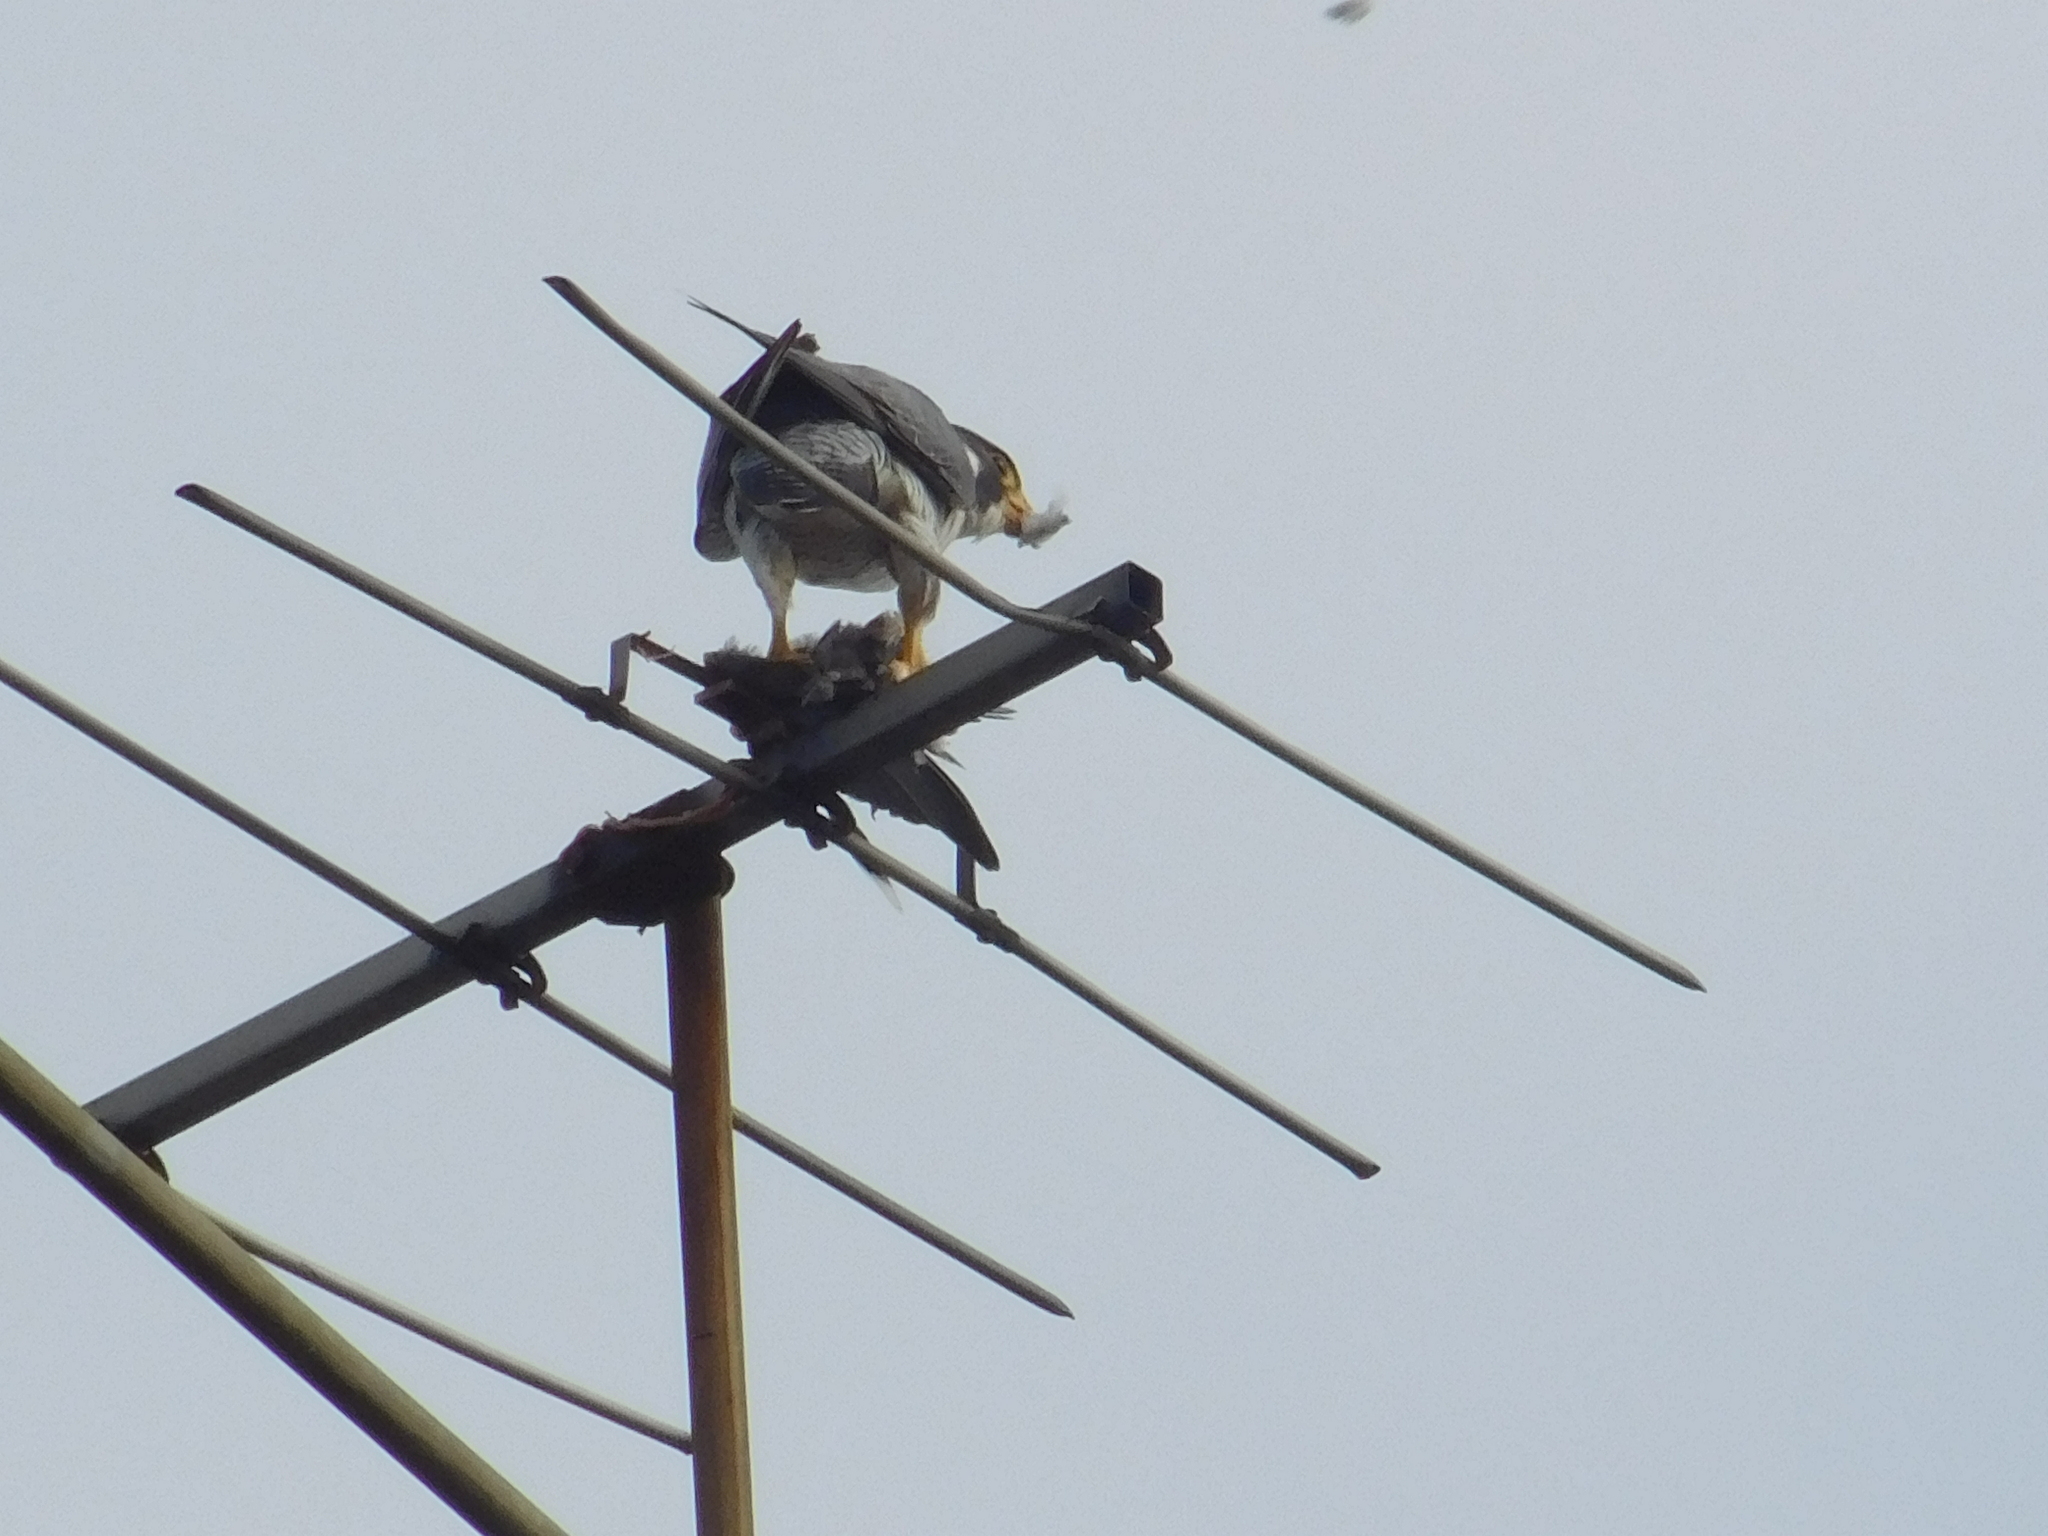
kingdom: Animalia
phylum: Chordata
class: Aves
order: Falconiformes
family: Falconidae
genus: Falco
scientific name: Falco peregrinus
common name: Peregrine falcon
